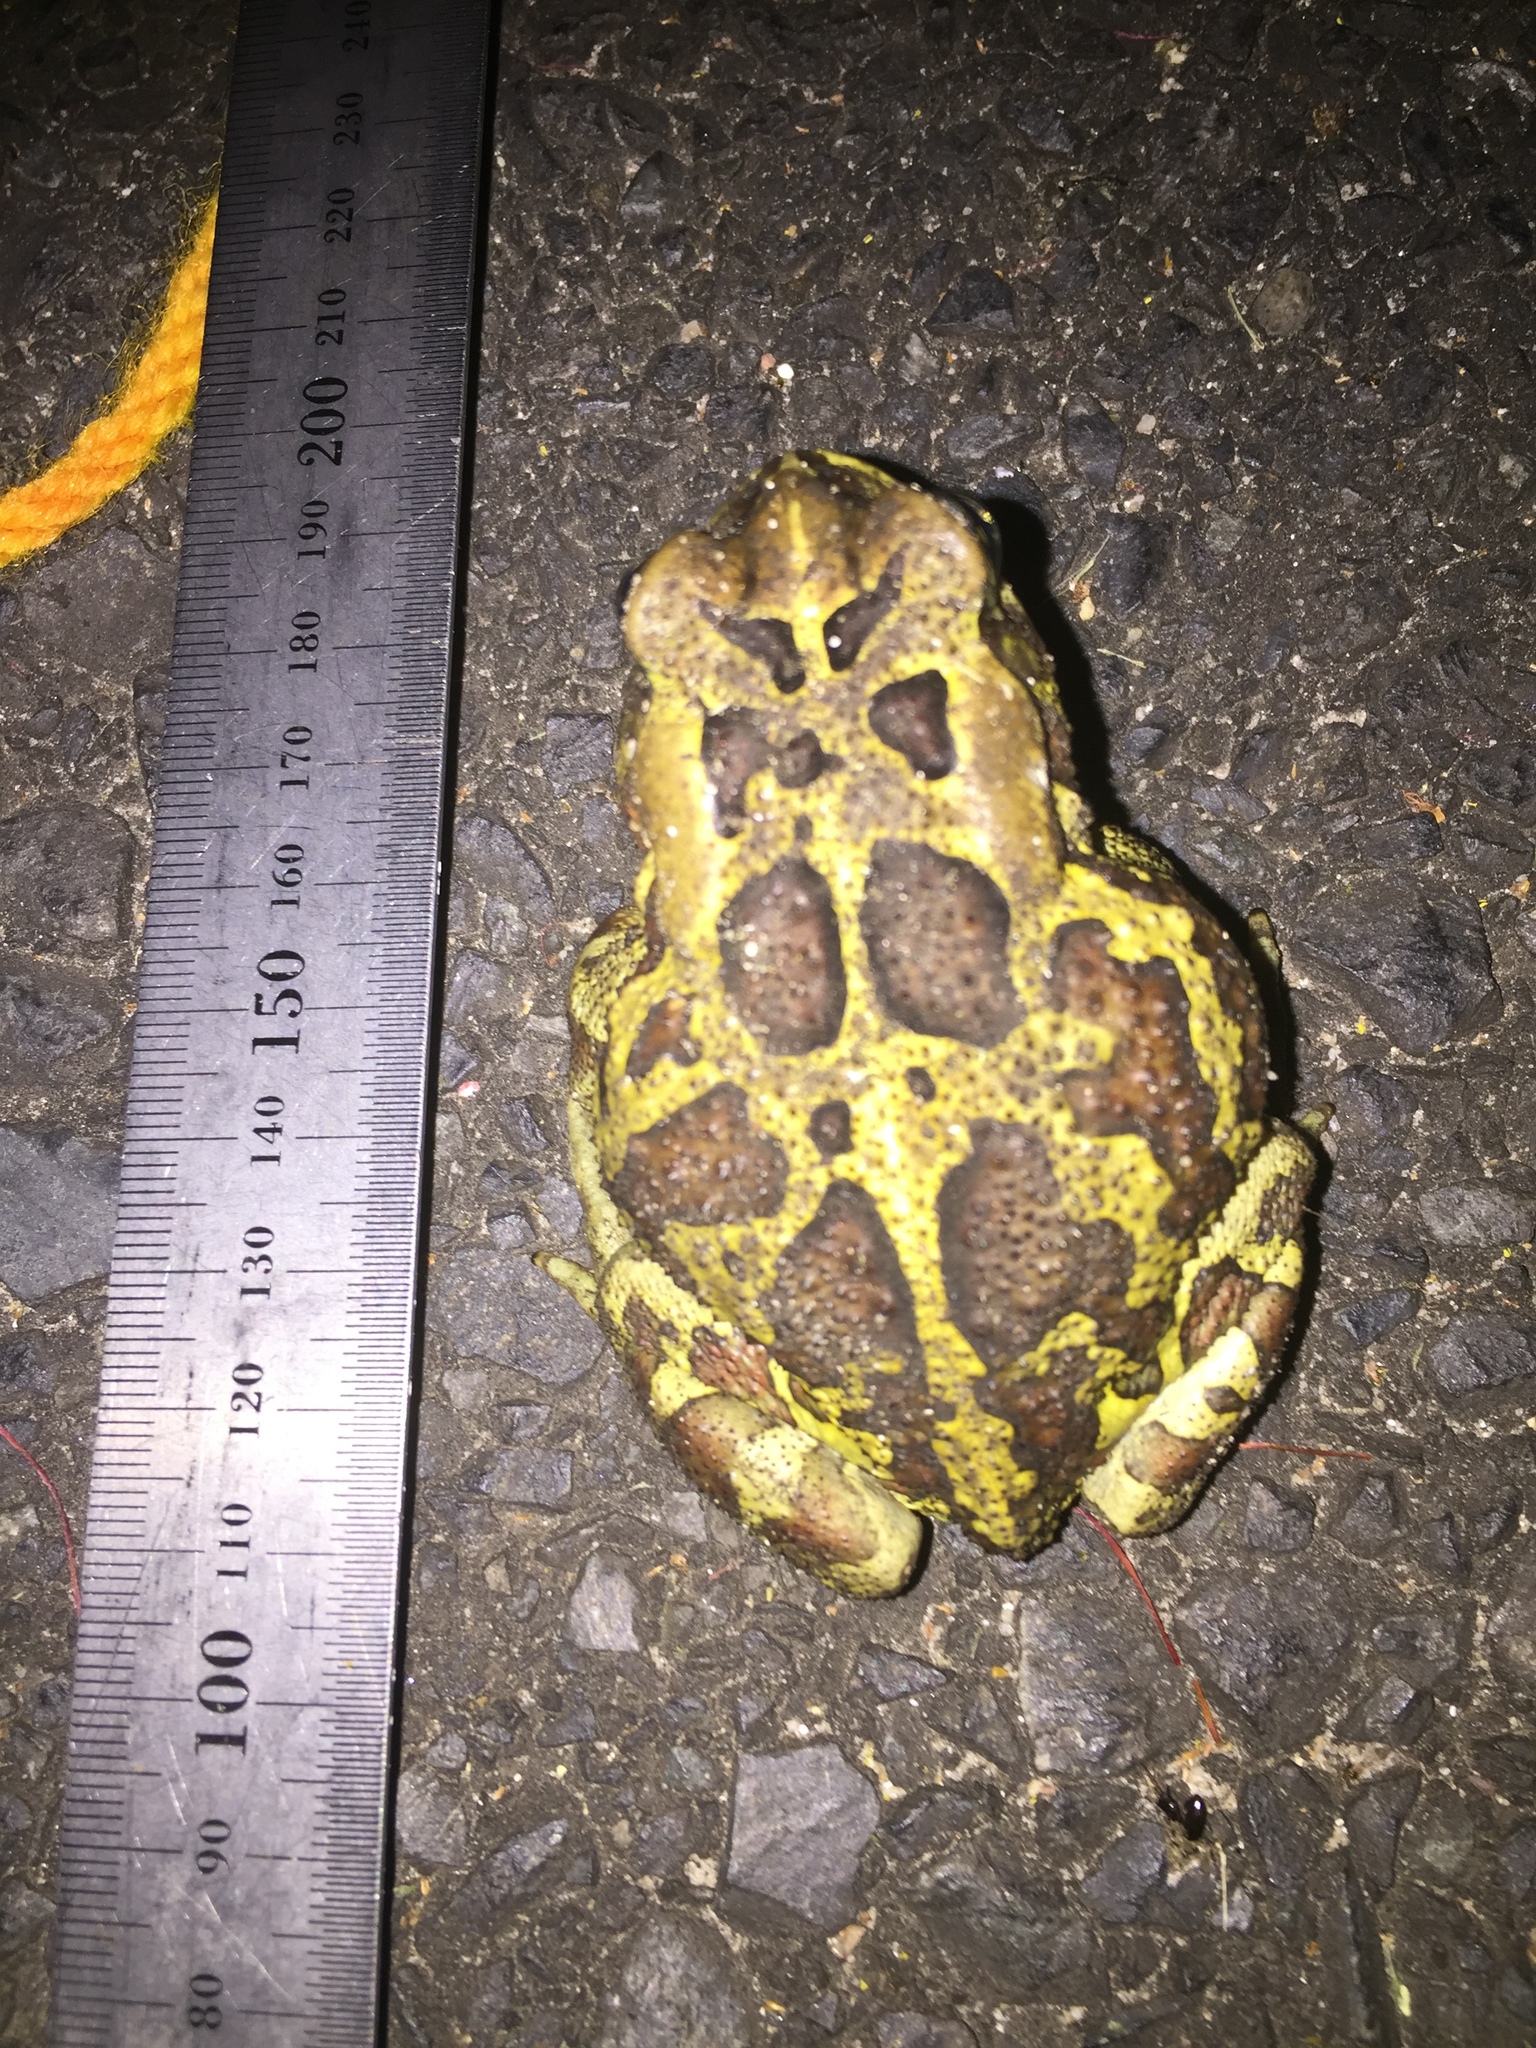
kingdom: Animalia
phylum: Chordata
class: Amphibia
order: Anura
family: Bufonidae
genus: Sclerophrys
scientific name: Sclerophrys pantherina
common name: Panther toad
